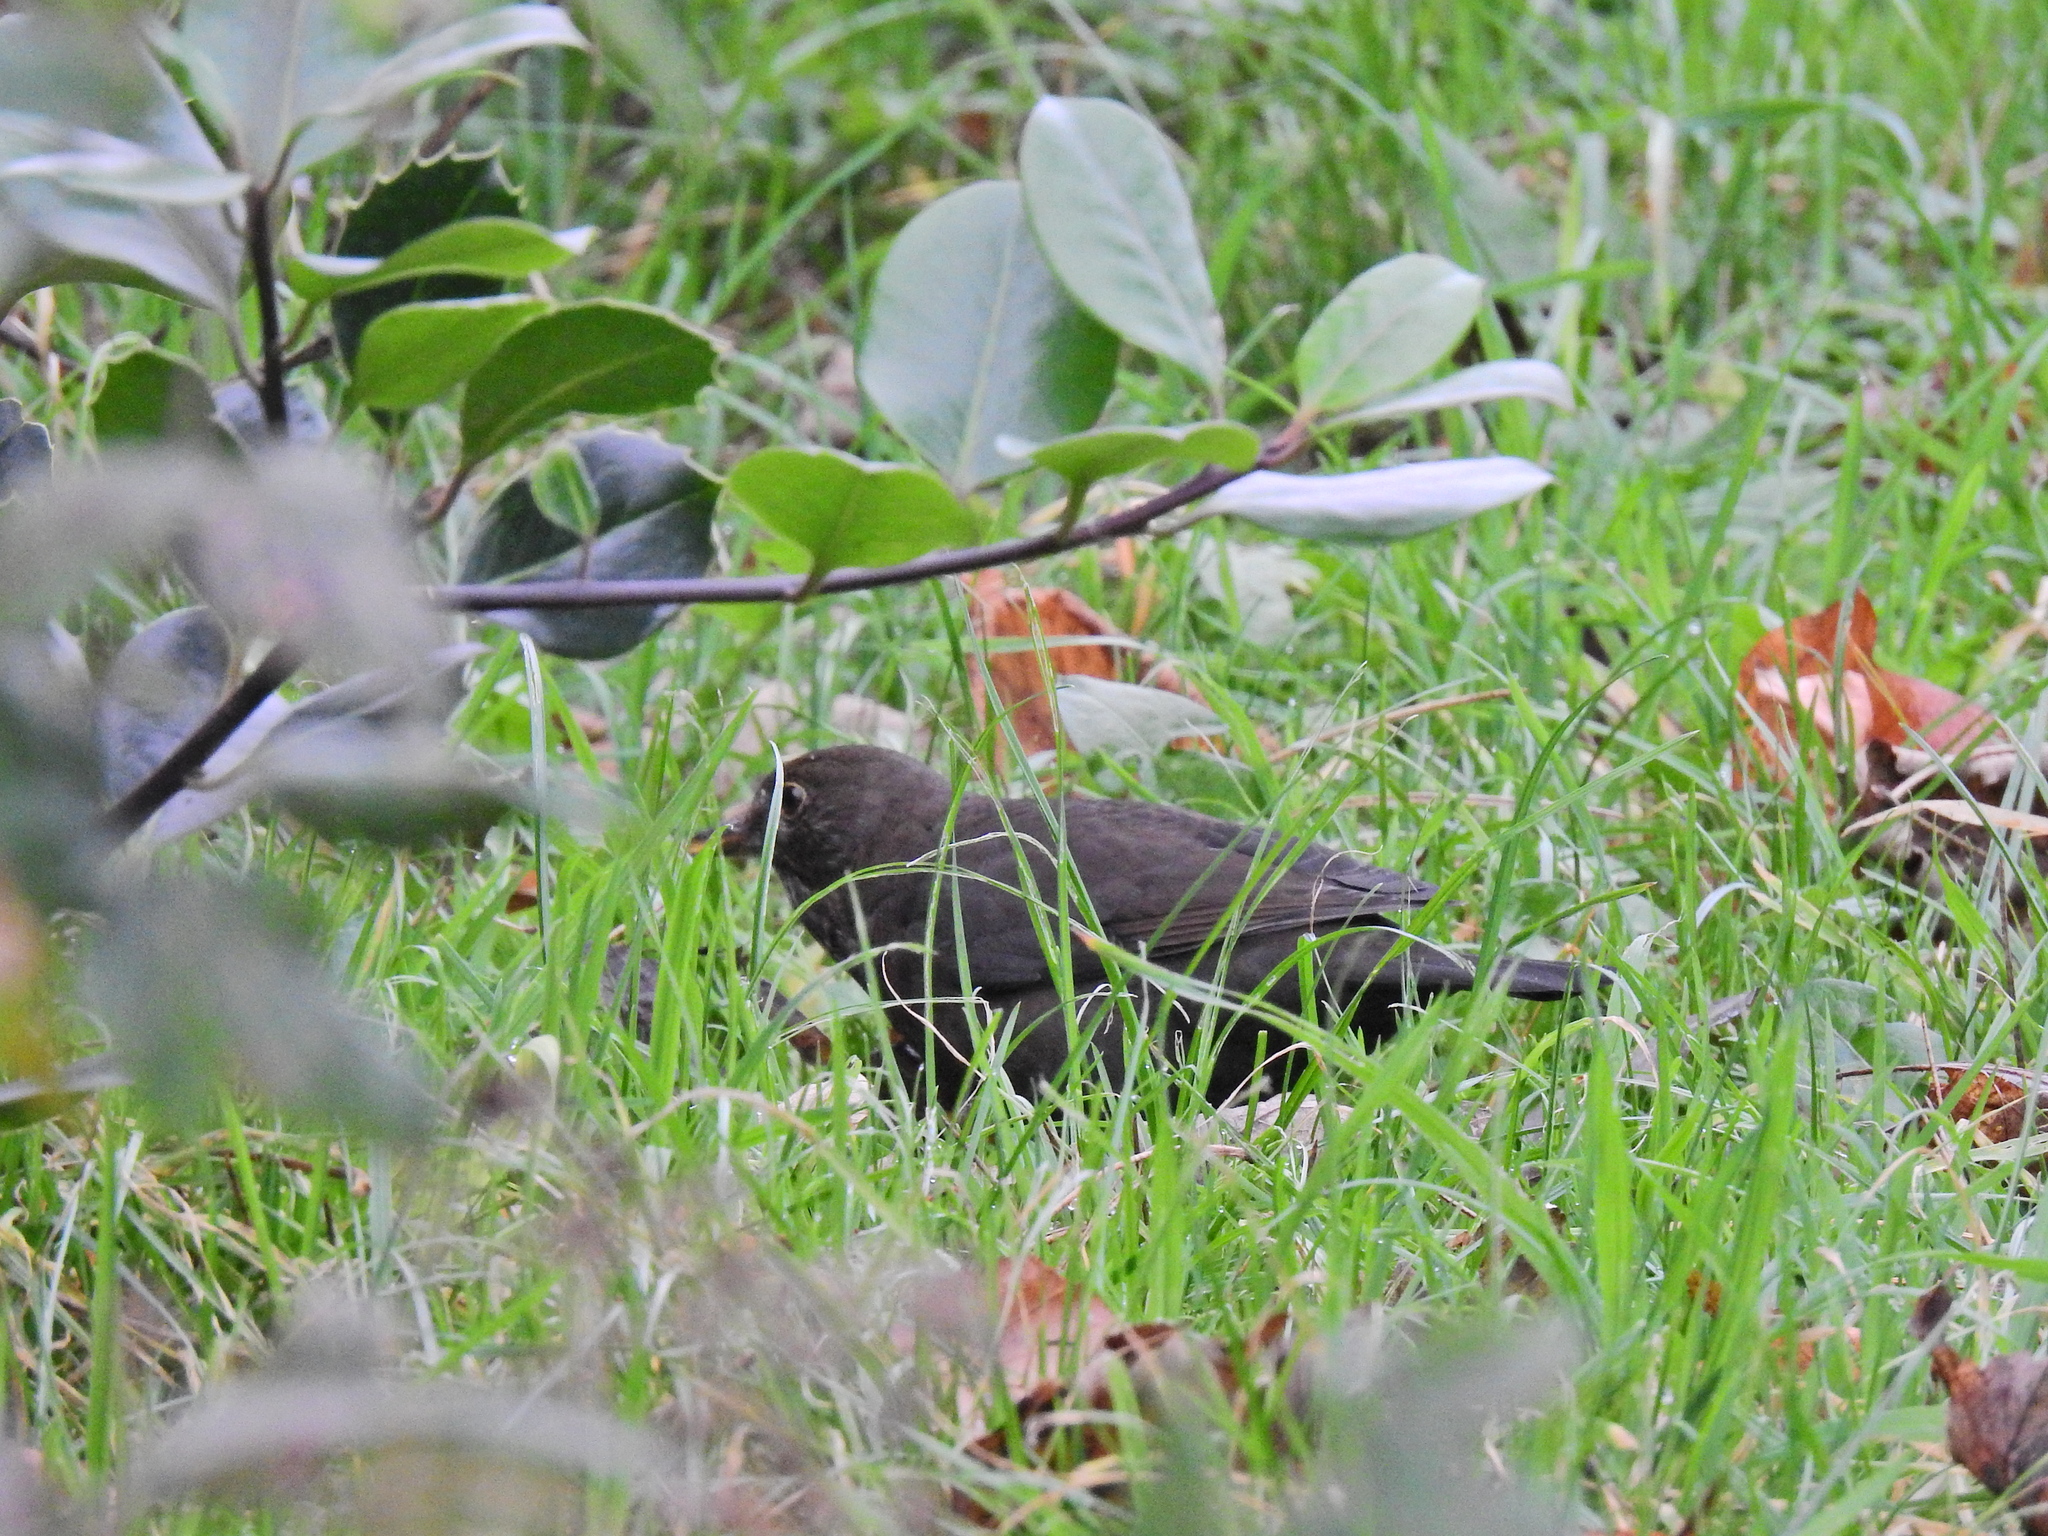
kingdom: Animalia
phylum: Chordata
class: Aves
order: Passeriformes
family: Turdidae
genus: Turdus
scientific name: Turdus merula
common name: Common blackbird
